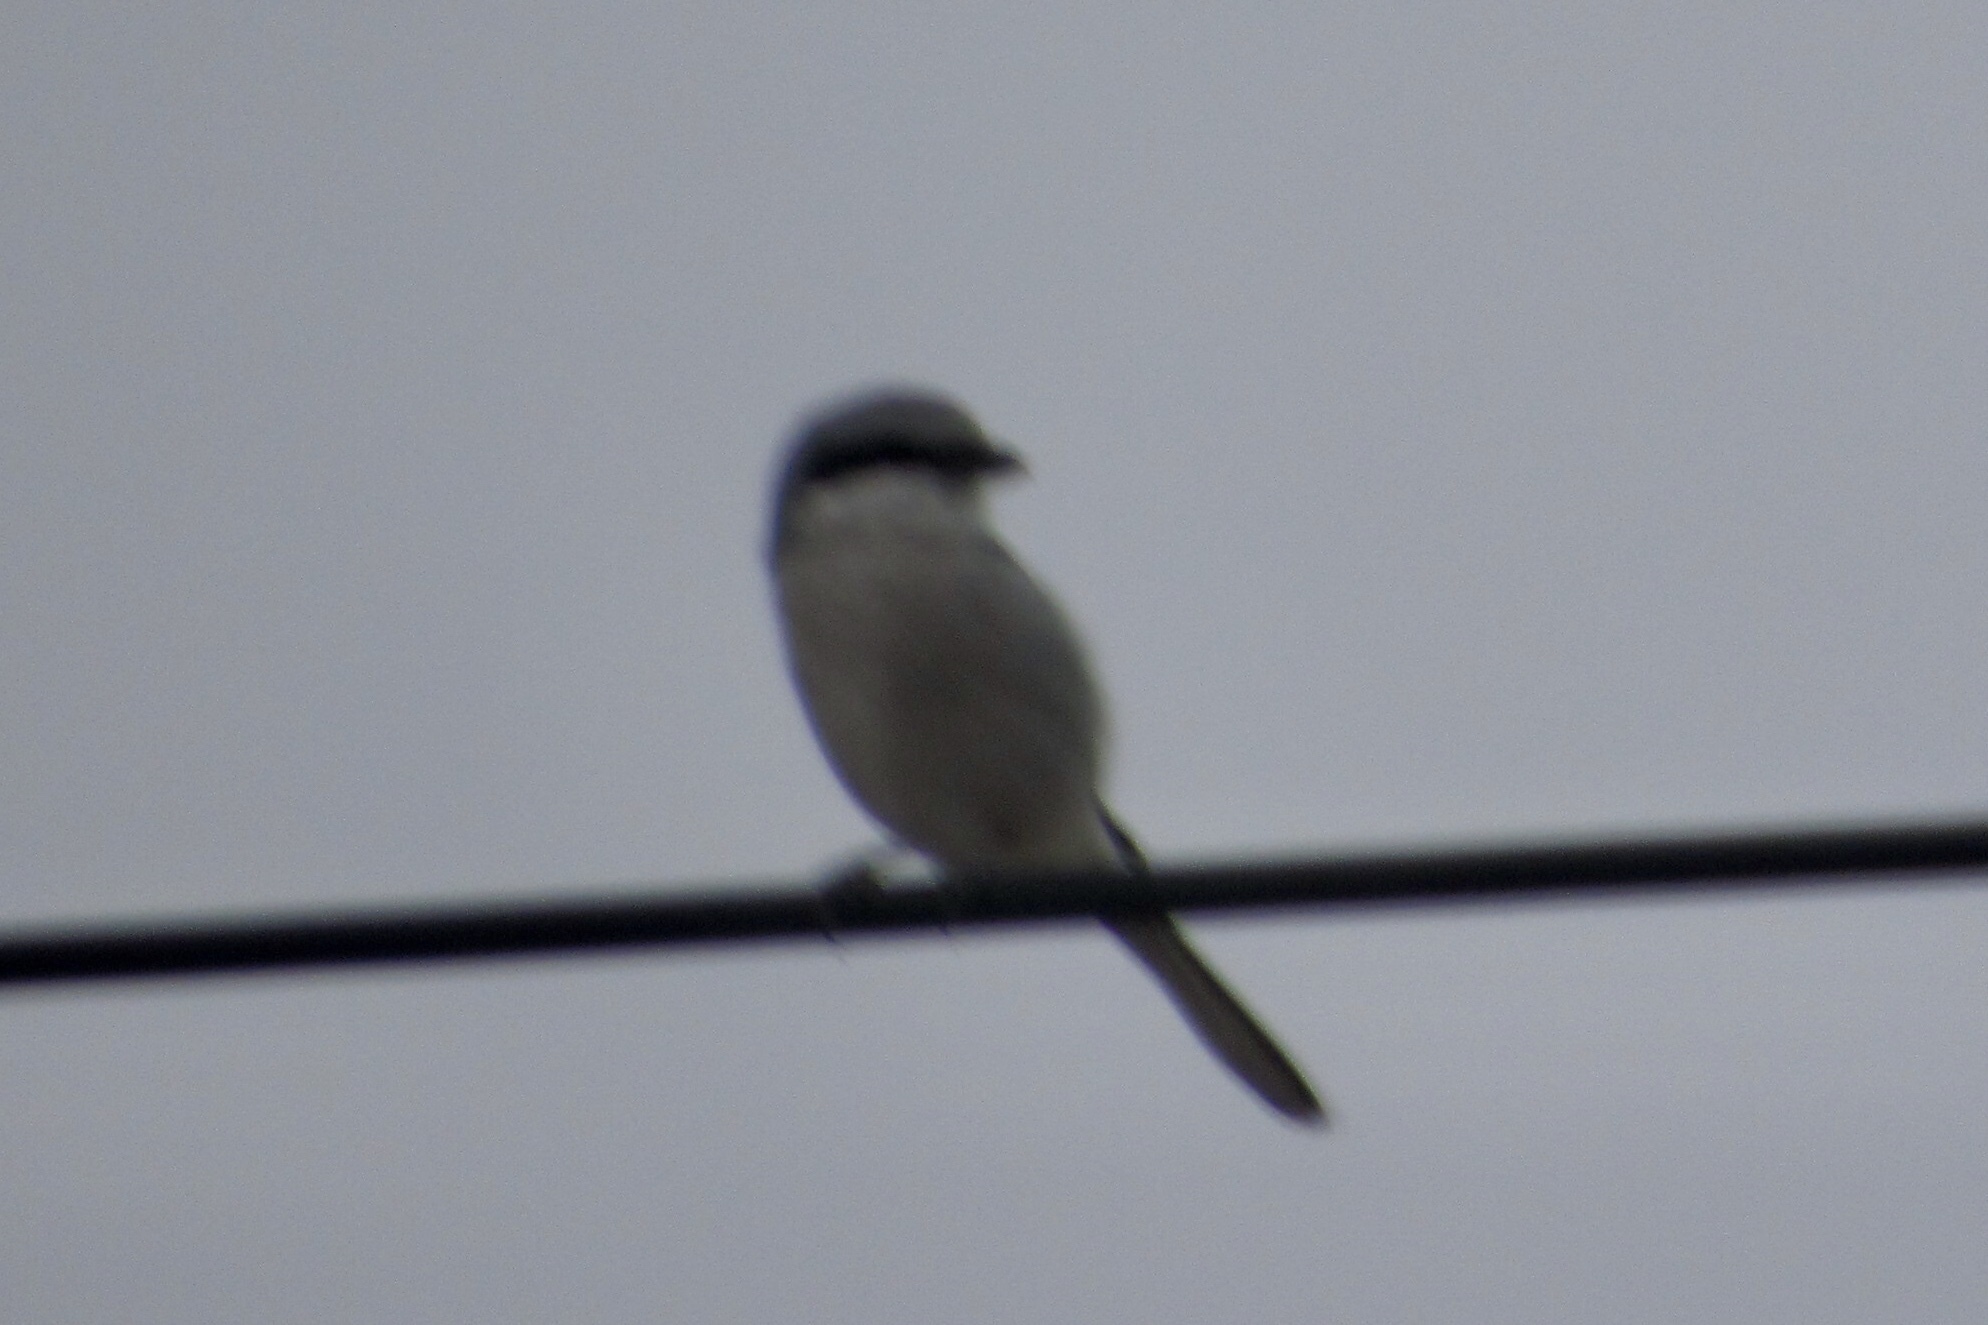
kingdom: Animalia
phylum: Chordata
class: Aves
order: Passeriformes
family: Laniidae
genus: Lanius
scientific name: Lanius ludovicianus
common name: Loggerhead shrike
